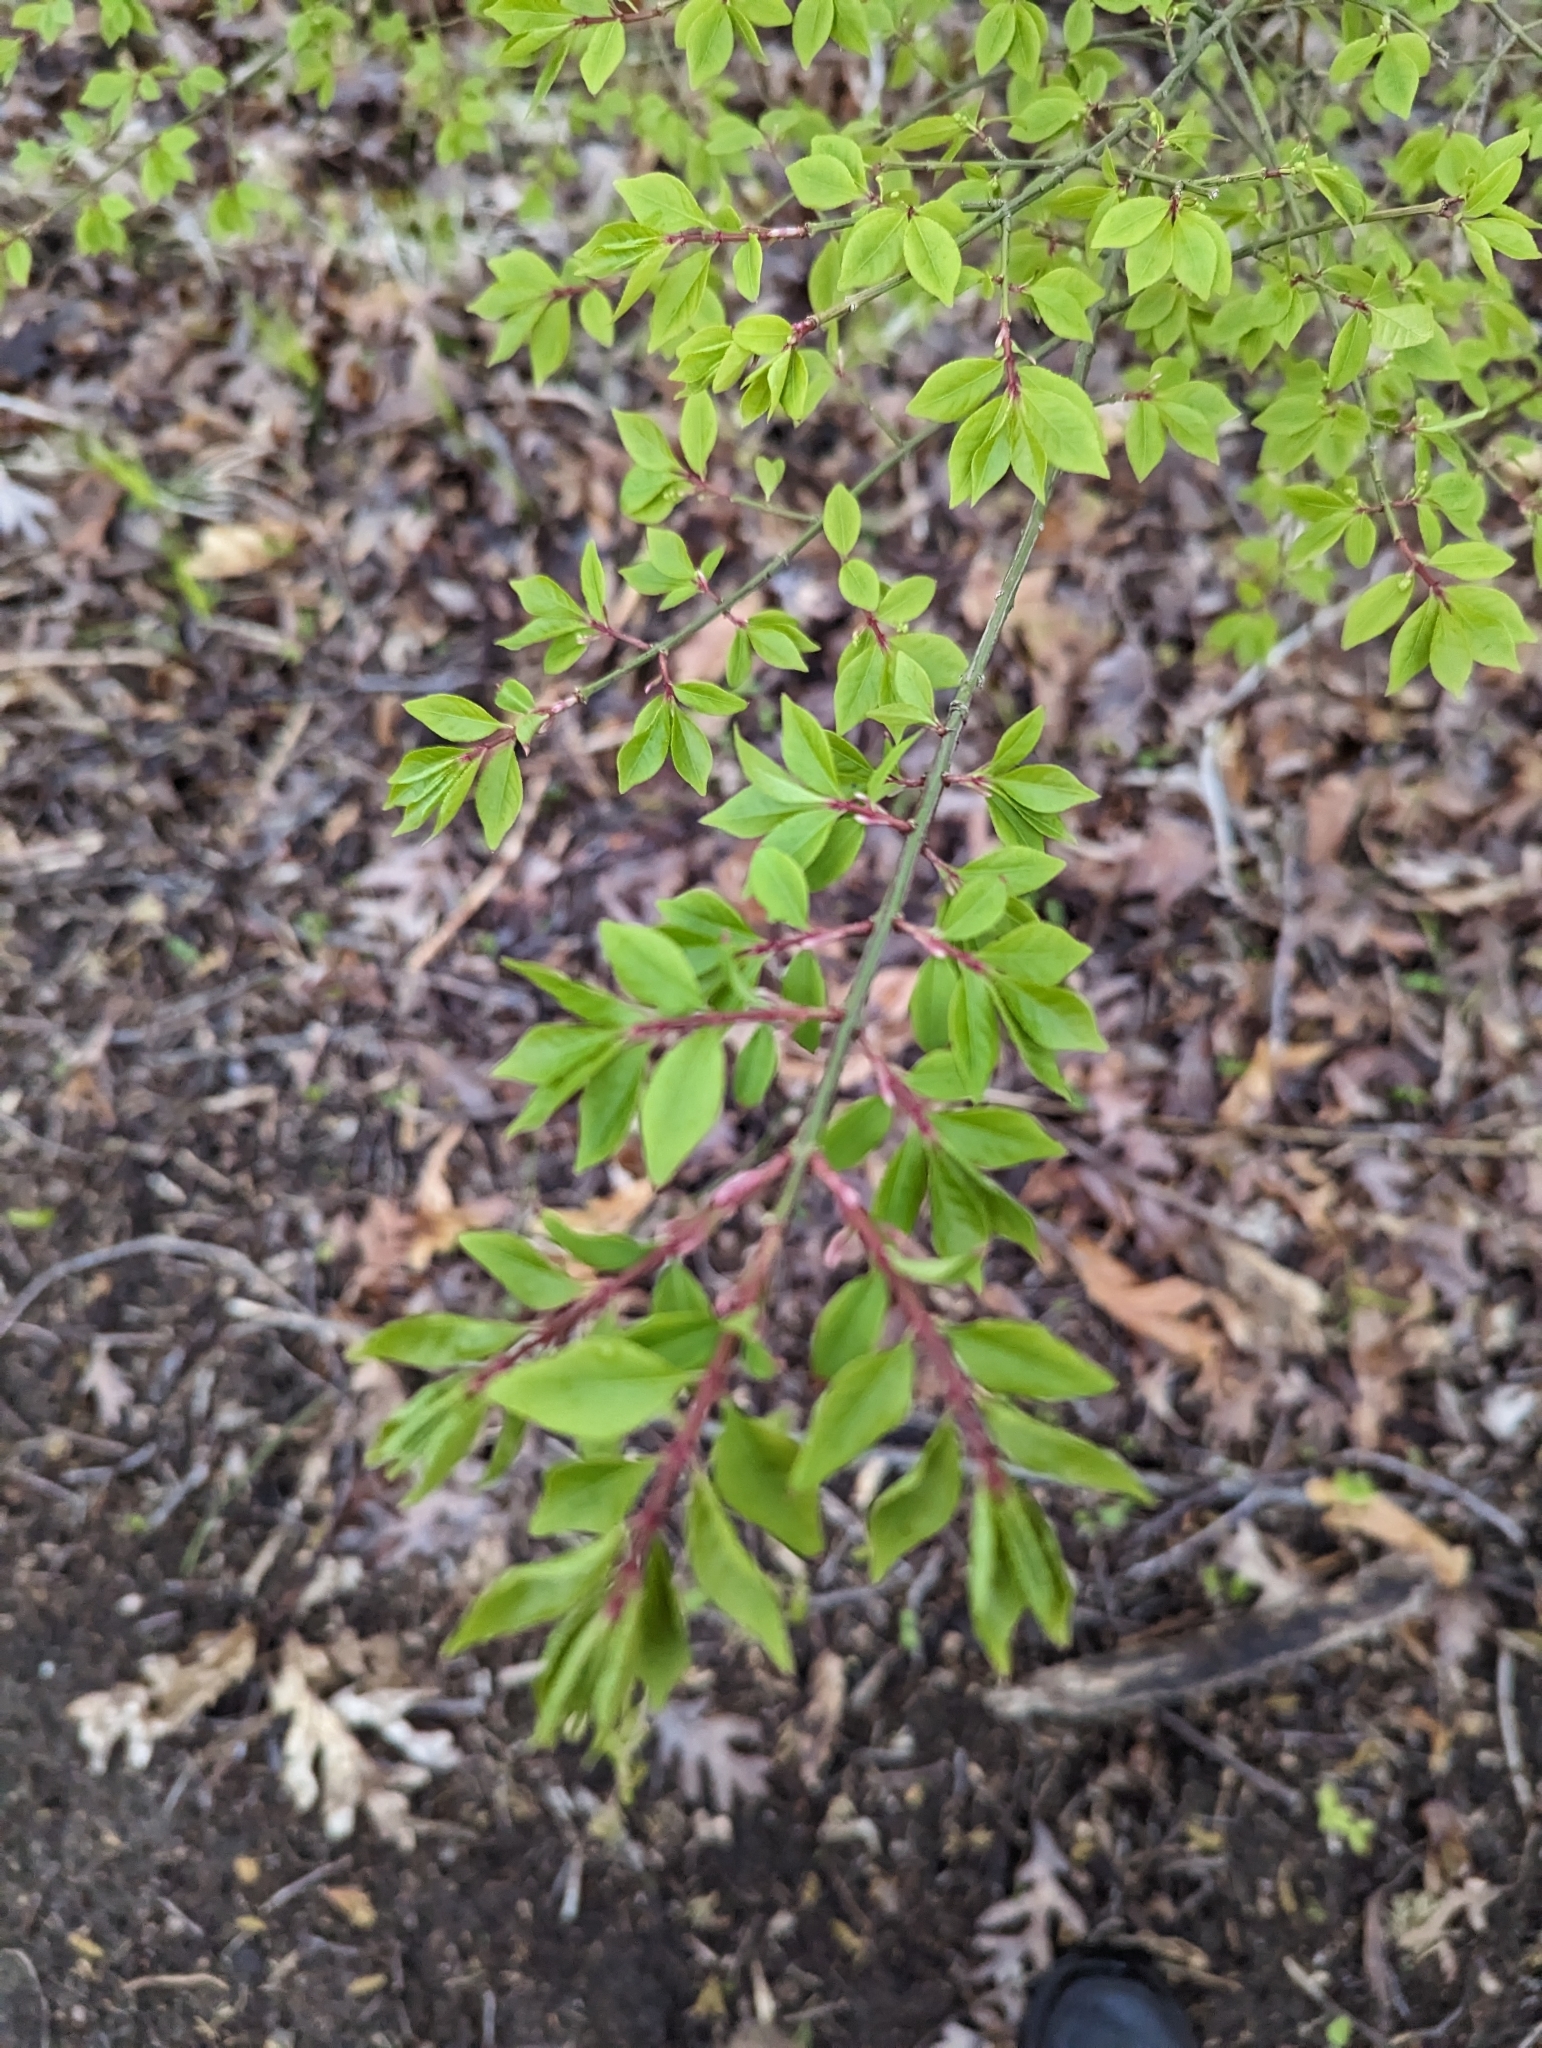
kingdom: Plantae
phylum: Tracheophyta
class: Magnoliopsida
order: Celastrales
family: Celastraceae
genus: Euonymus
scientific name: Euonymus alatus
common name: Winged euonymus
